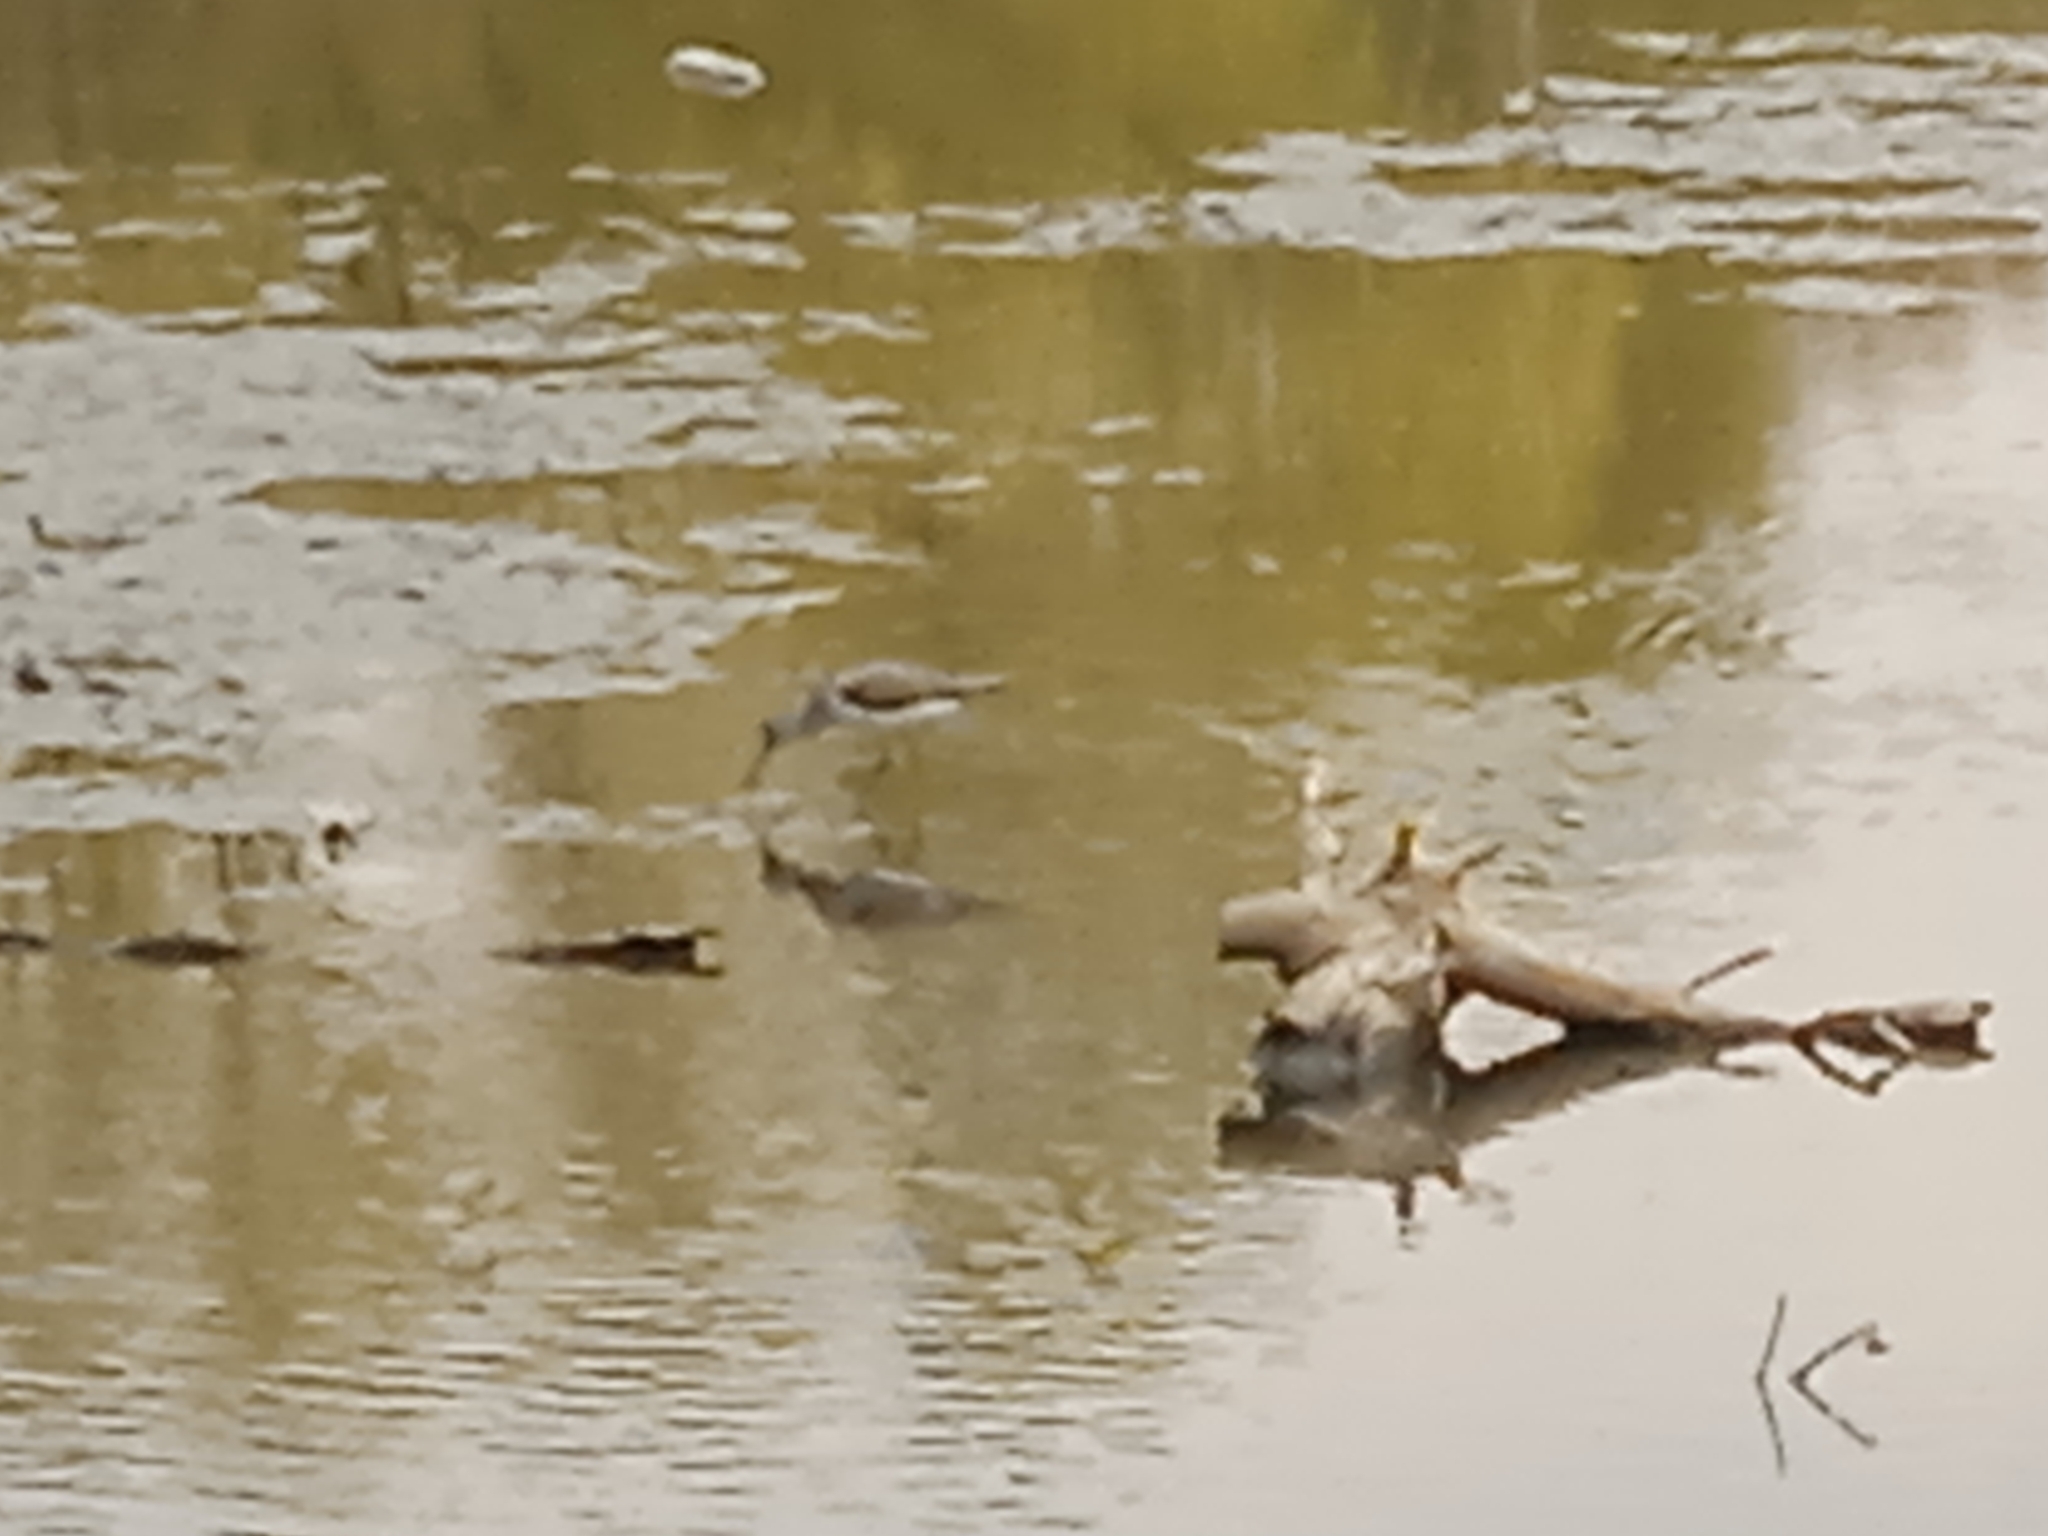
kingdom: Animalia
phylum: Chordata
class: Aves
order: Charadriiformes
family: Scolopacidae
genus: Tringa
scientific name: Tringa nebularia
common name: Common greenshank
